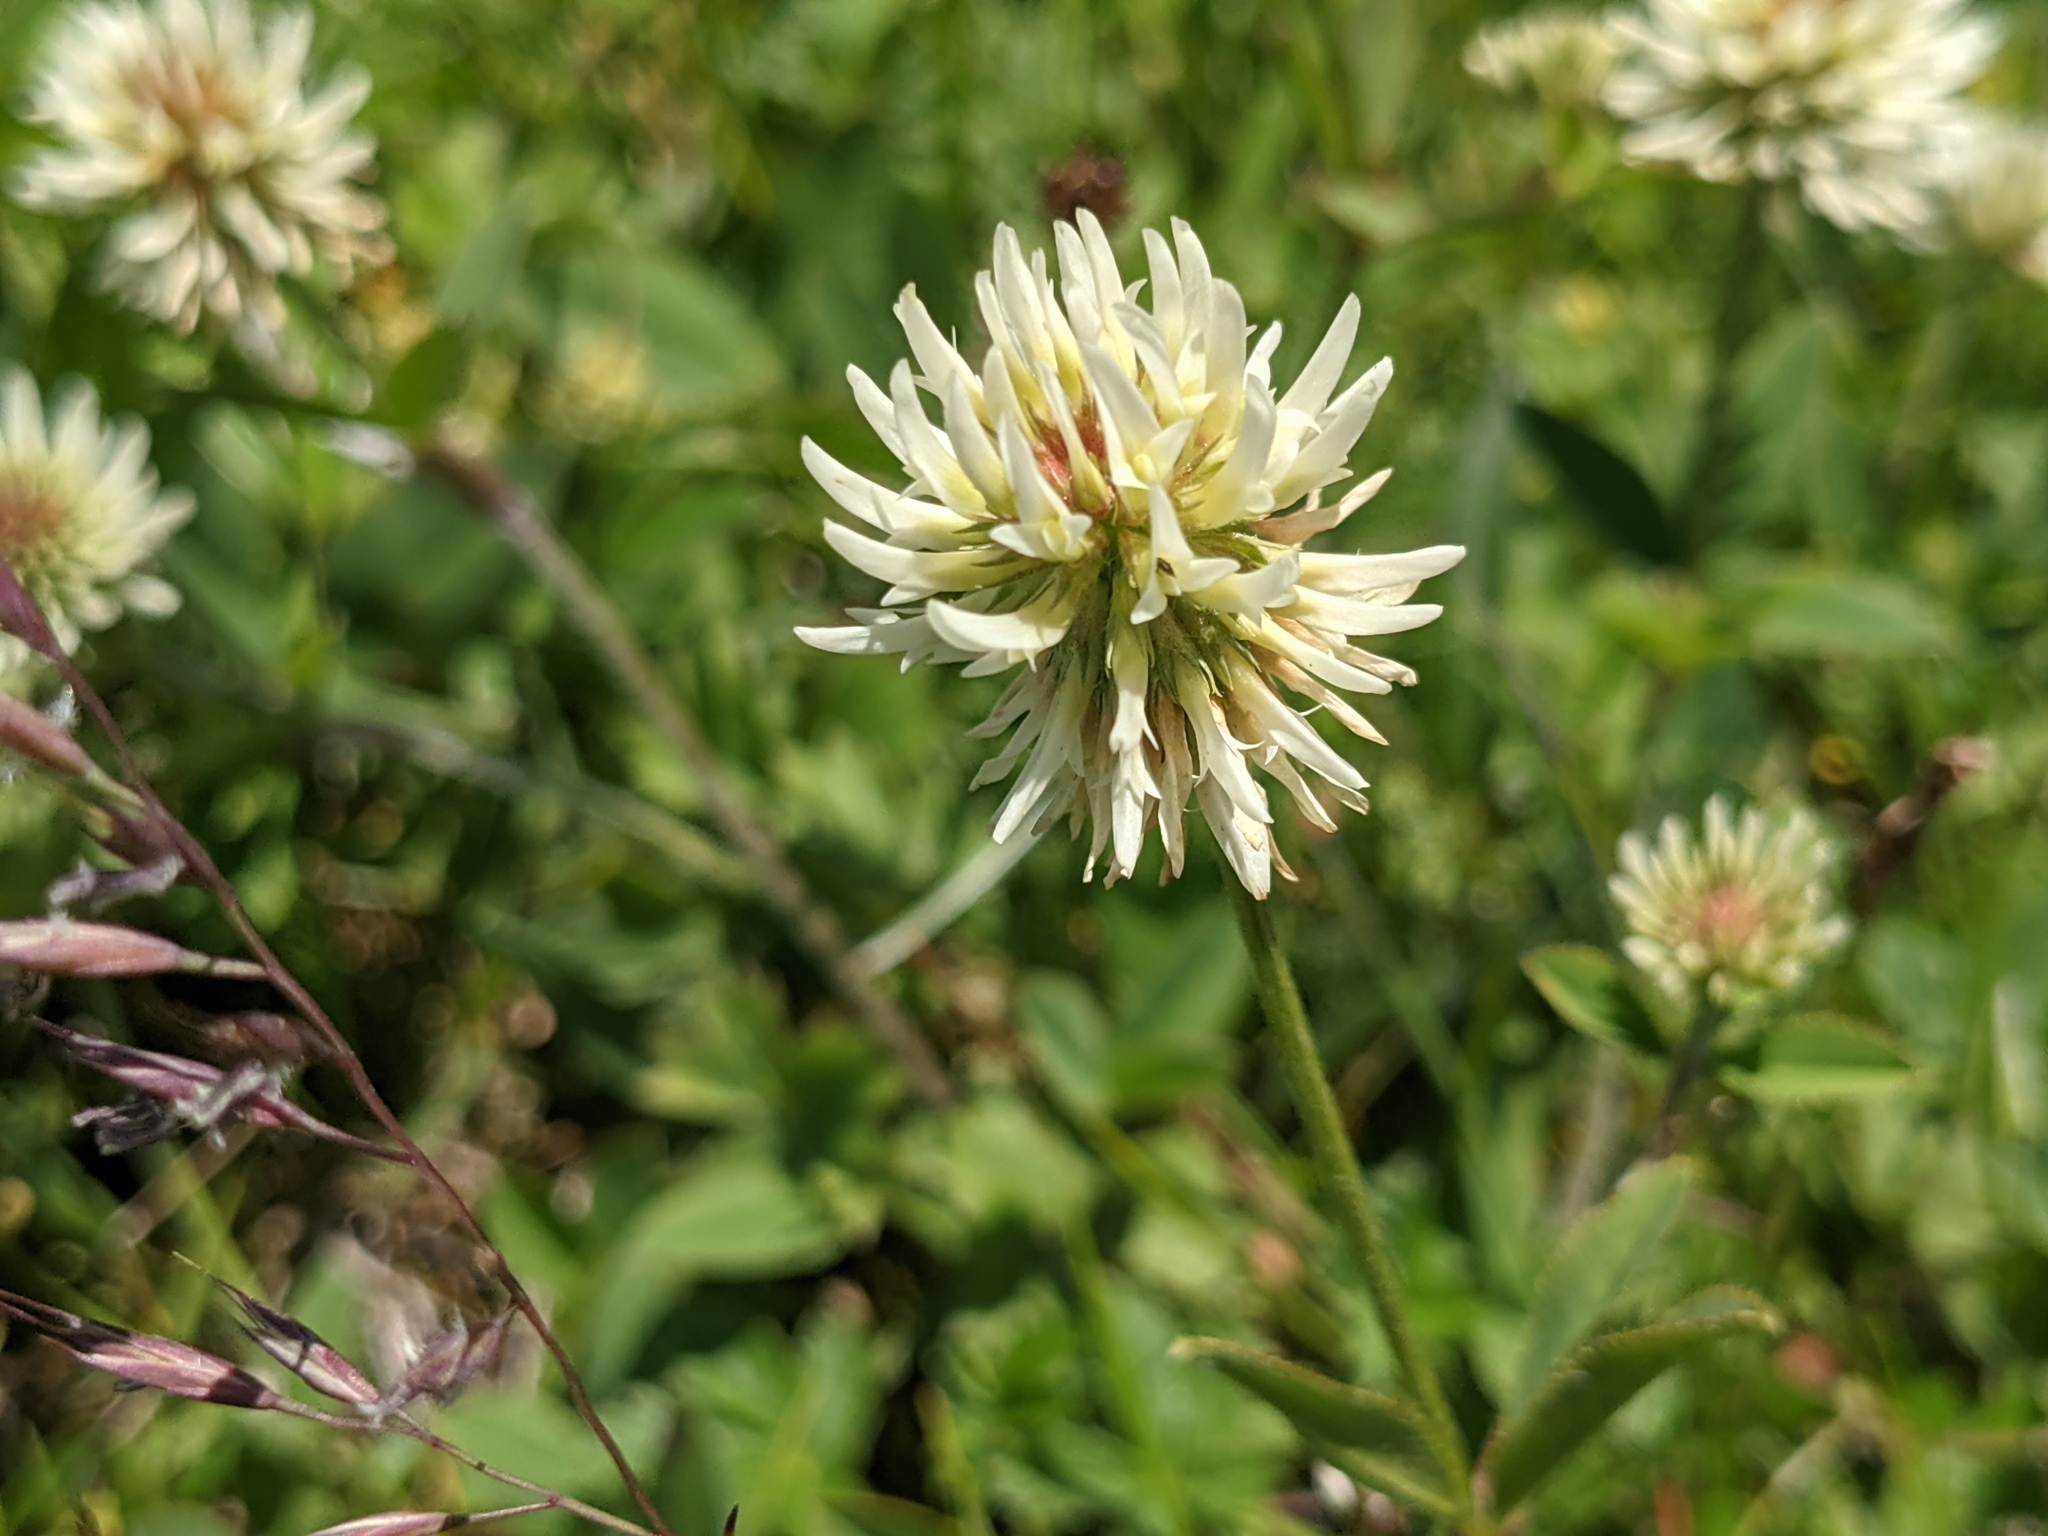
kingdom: Plantae
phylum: Tracheophyta
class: Magnoliopsida
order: Fabales
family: Fabaceae
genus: Trifolium
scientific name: Trifolium montanum
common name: Mountain clover
